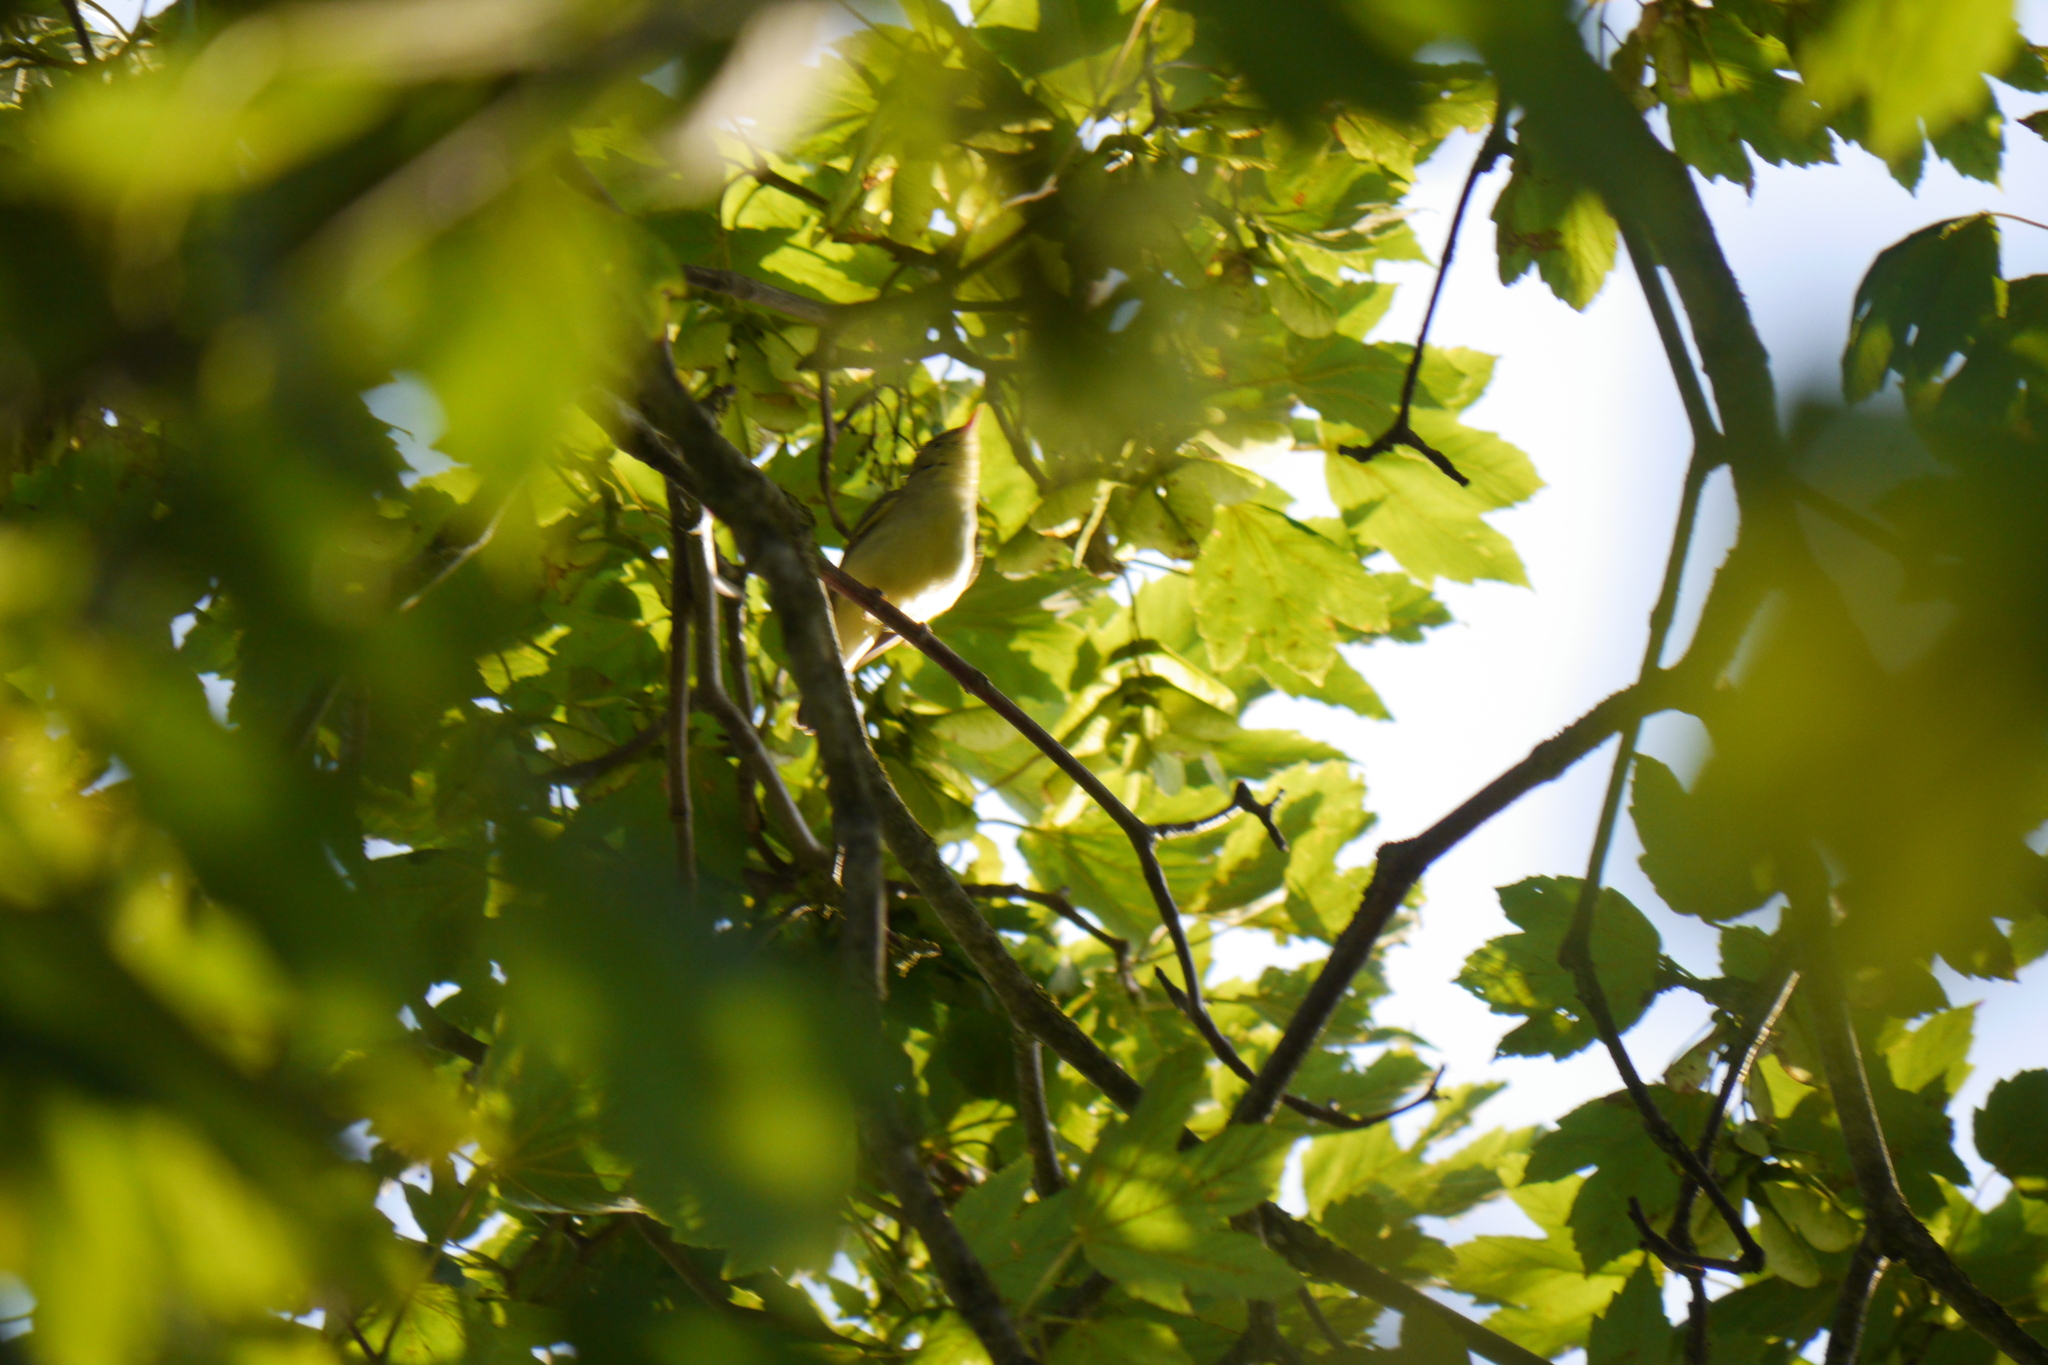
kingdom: Animalia
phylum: Chordata
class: Aves
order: Passeriformes
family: Acrocephalidae
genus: Hippolais
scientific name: Hippolais icterina
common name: Icterine warbler
